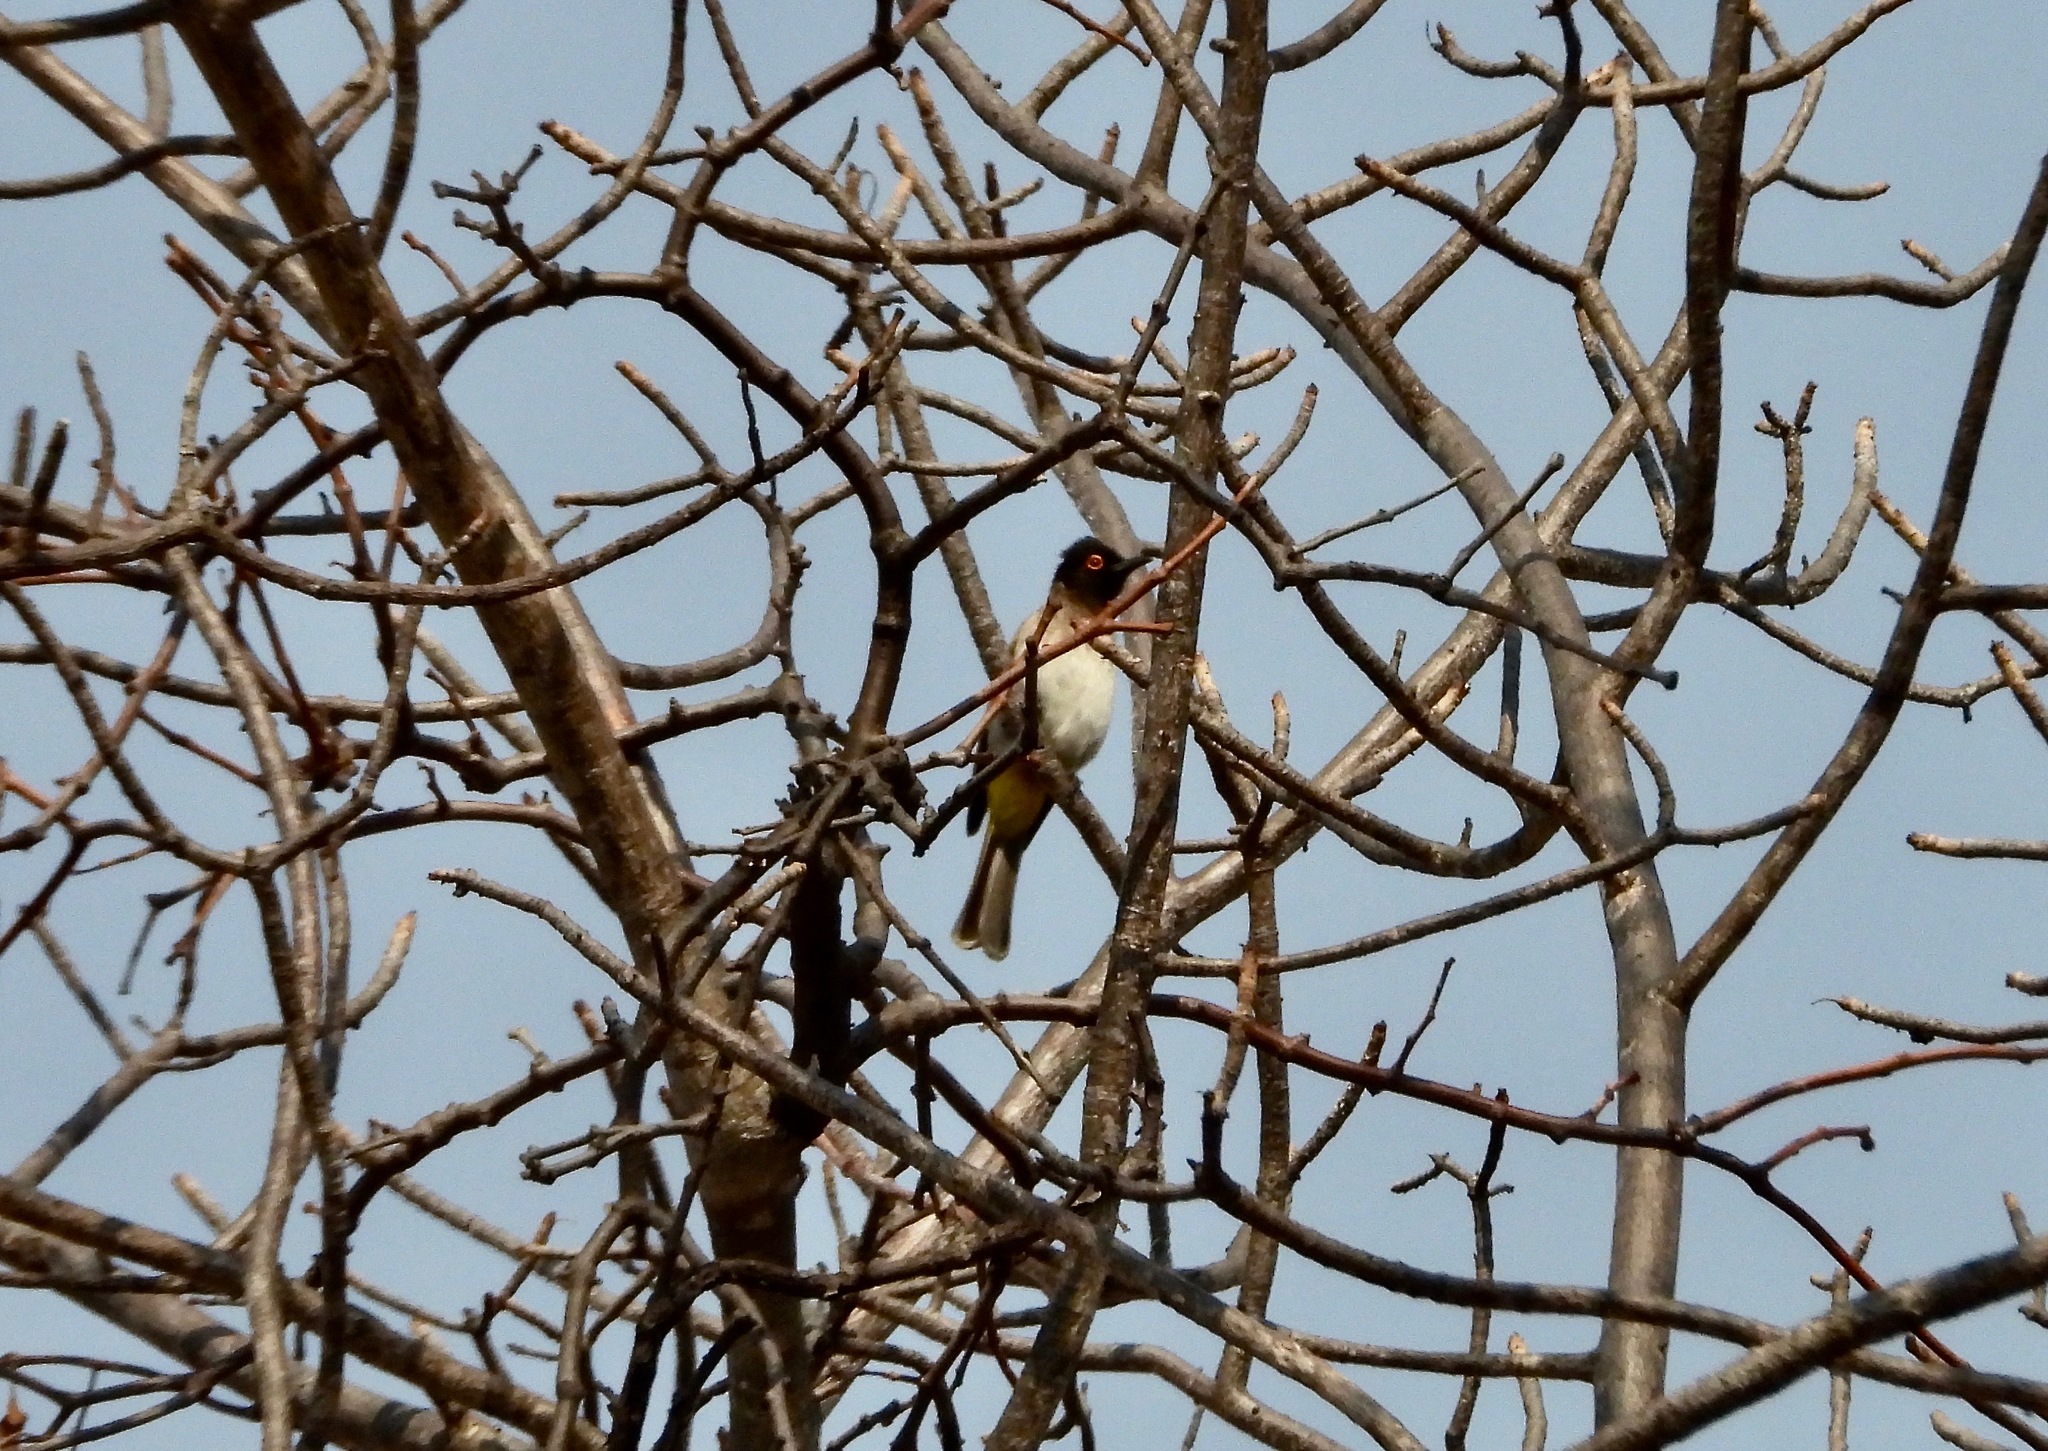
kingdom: Animalia
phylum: Chordata
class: Aves
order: Passeriformes
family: Pycnonotidae
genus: Pycnonotus
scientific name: Pycnonotus nigricans
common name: African red-eyed bulbul
